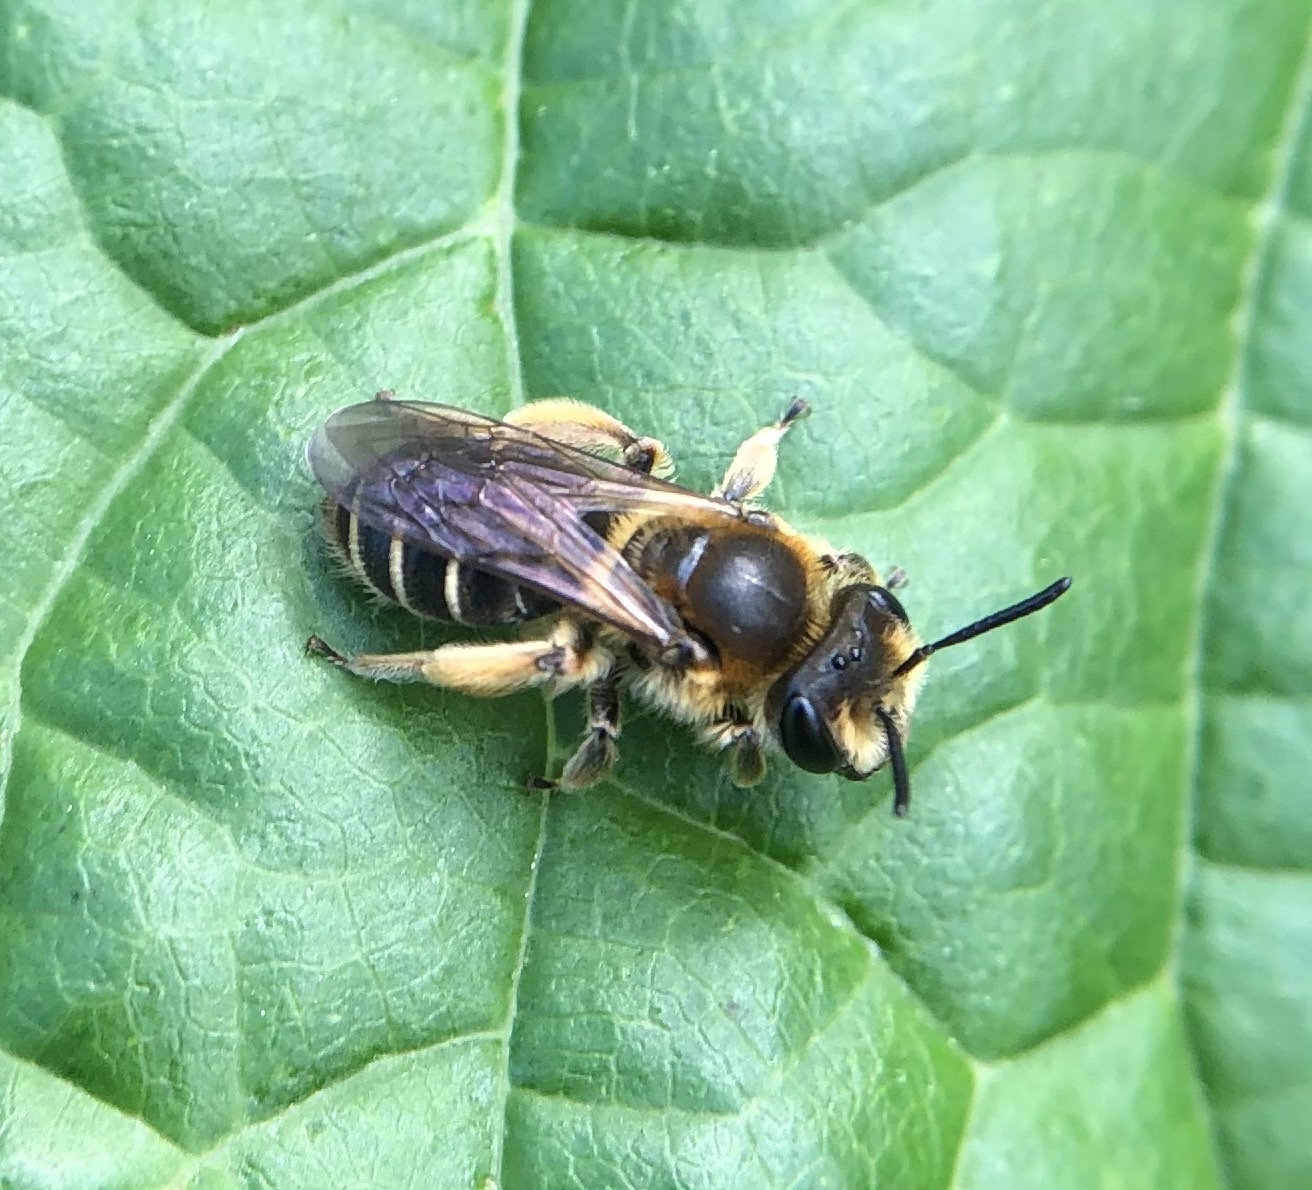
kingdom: Animalia
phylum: Arthropoda
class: Insecta
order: Hymenoptera
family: Andrenidae
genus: Andrena
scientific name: Andrena wilkella
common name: Wilke's mining bee
